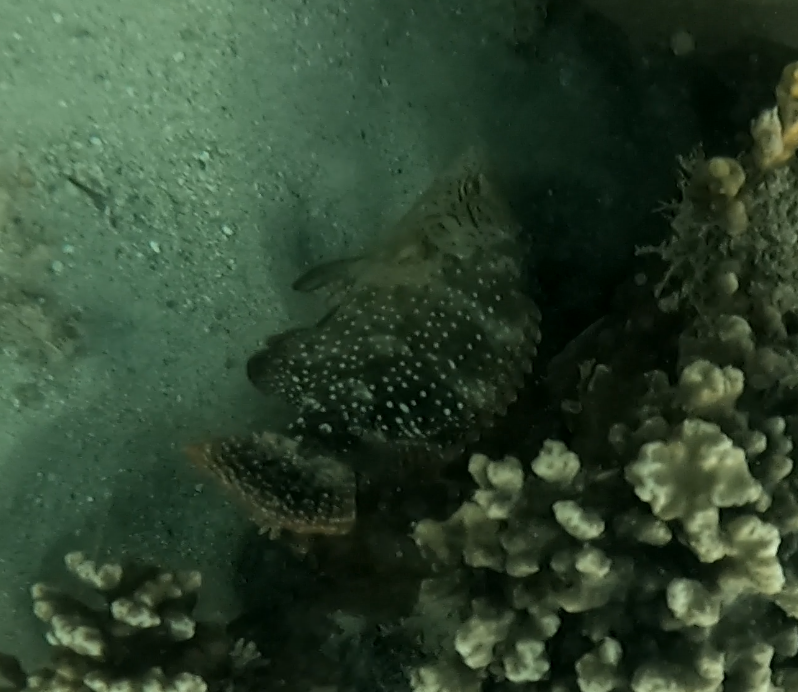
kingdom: Animalia
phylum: Chordata
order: Perciformes
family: Labridae
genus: Cheilinus
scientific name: Cheilinus chlorourus
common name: Floral wrasse
